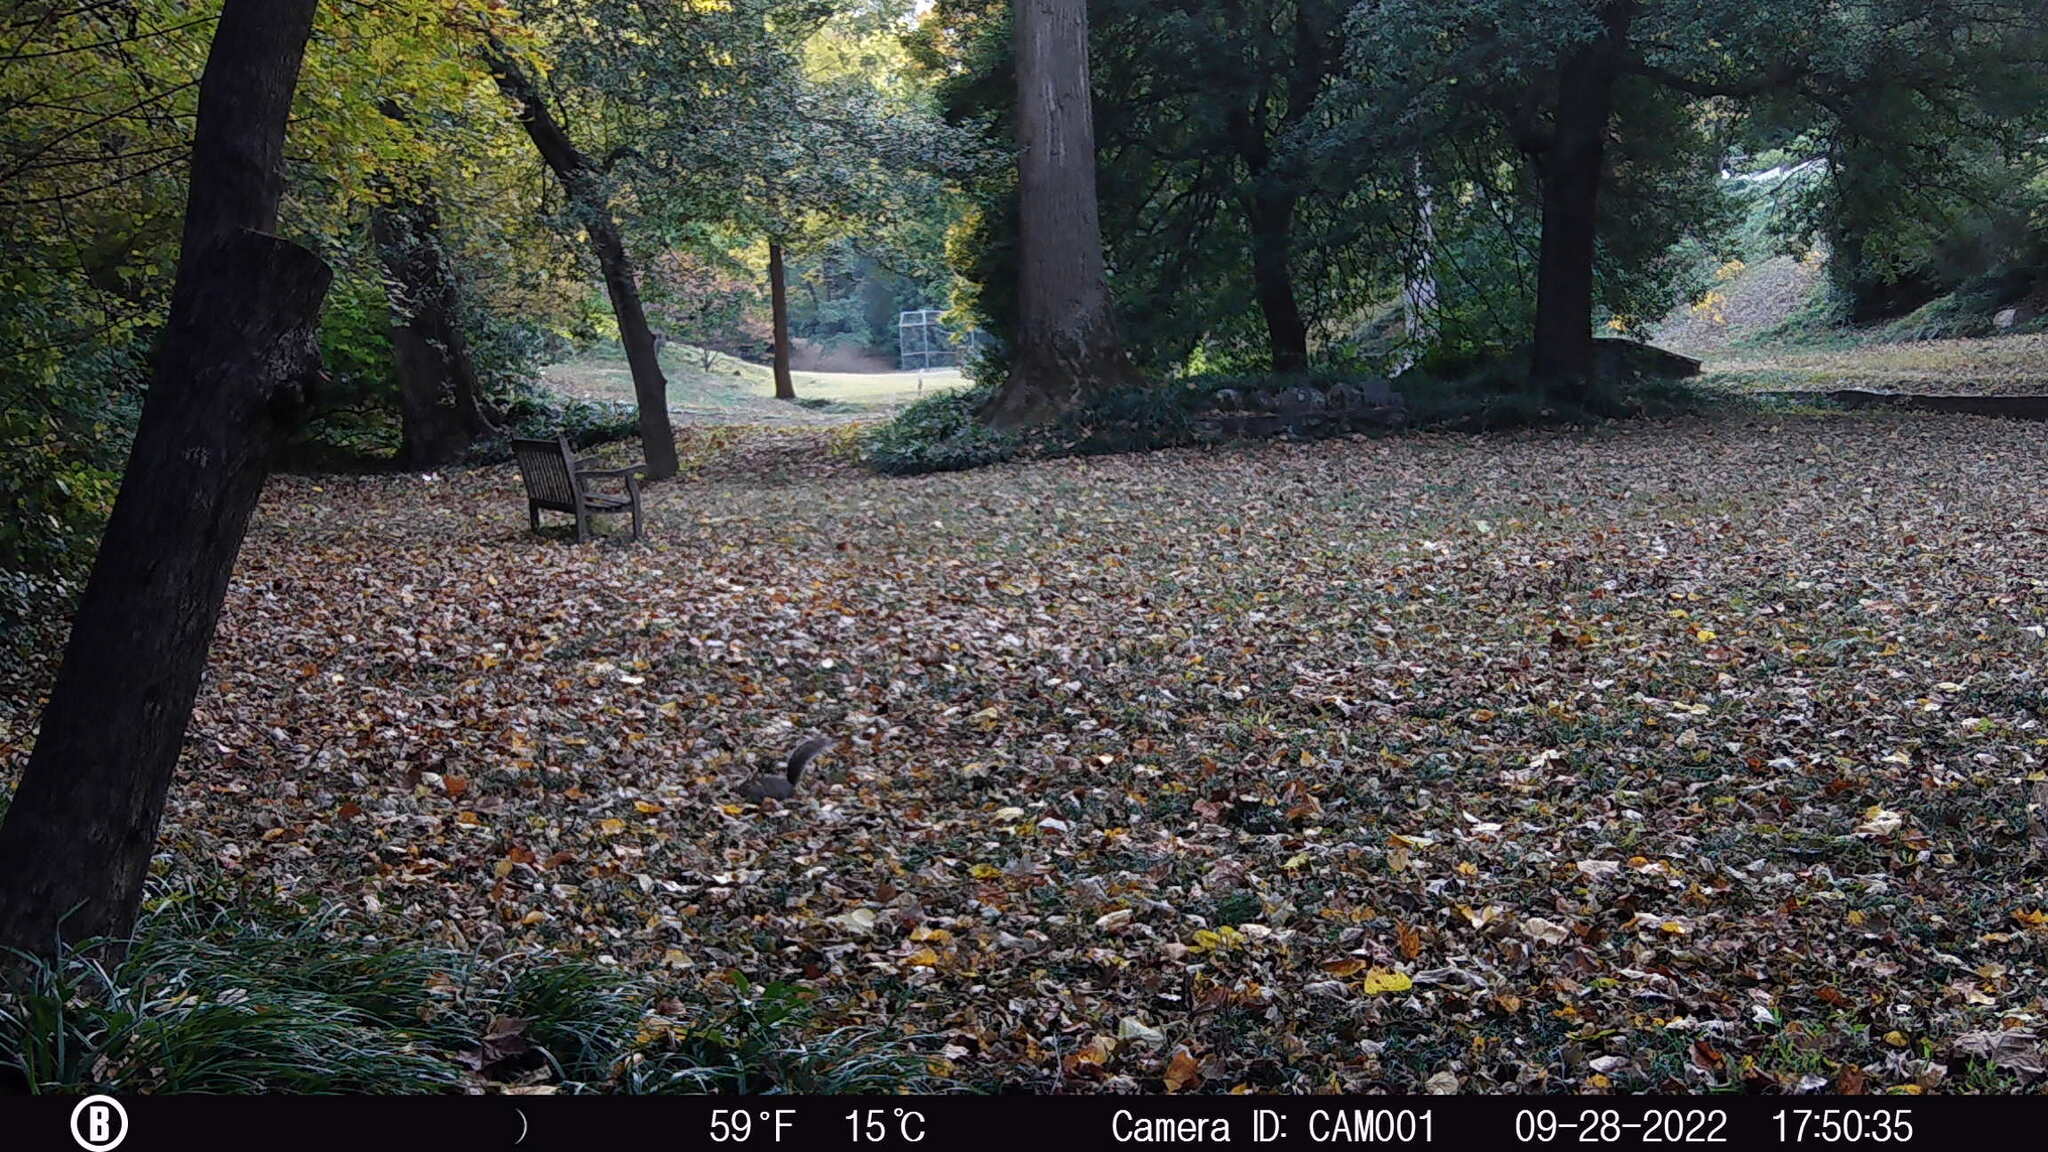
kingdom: Animalia
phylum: Chordata
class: Mammalia
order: Rodentia
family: Sciuridae
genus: Sciurus
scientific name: Sciurus carolinensis
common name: Eastern gray squirrel
